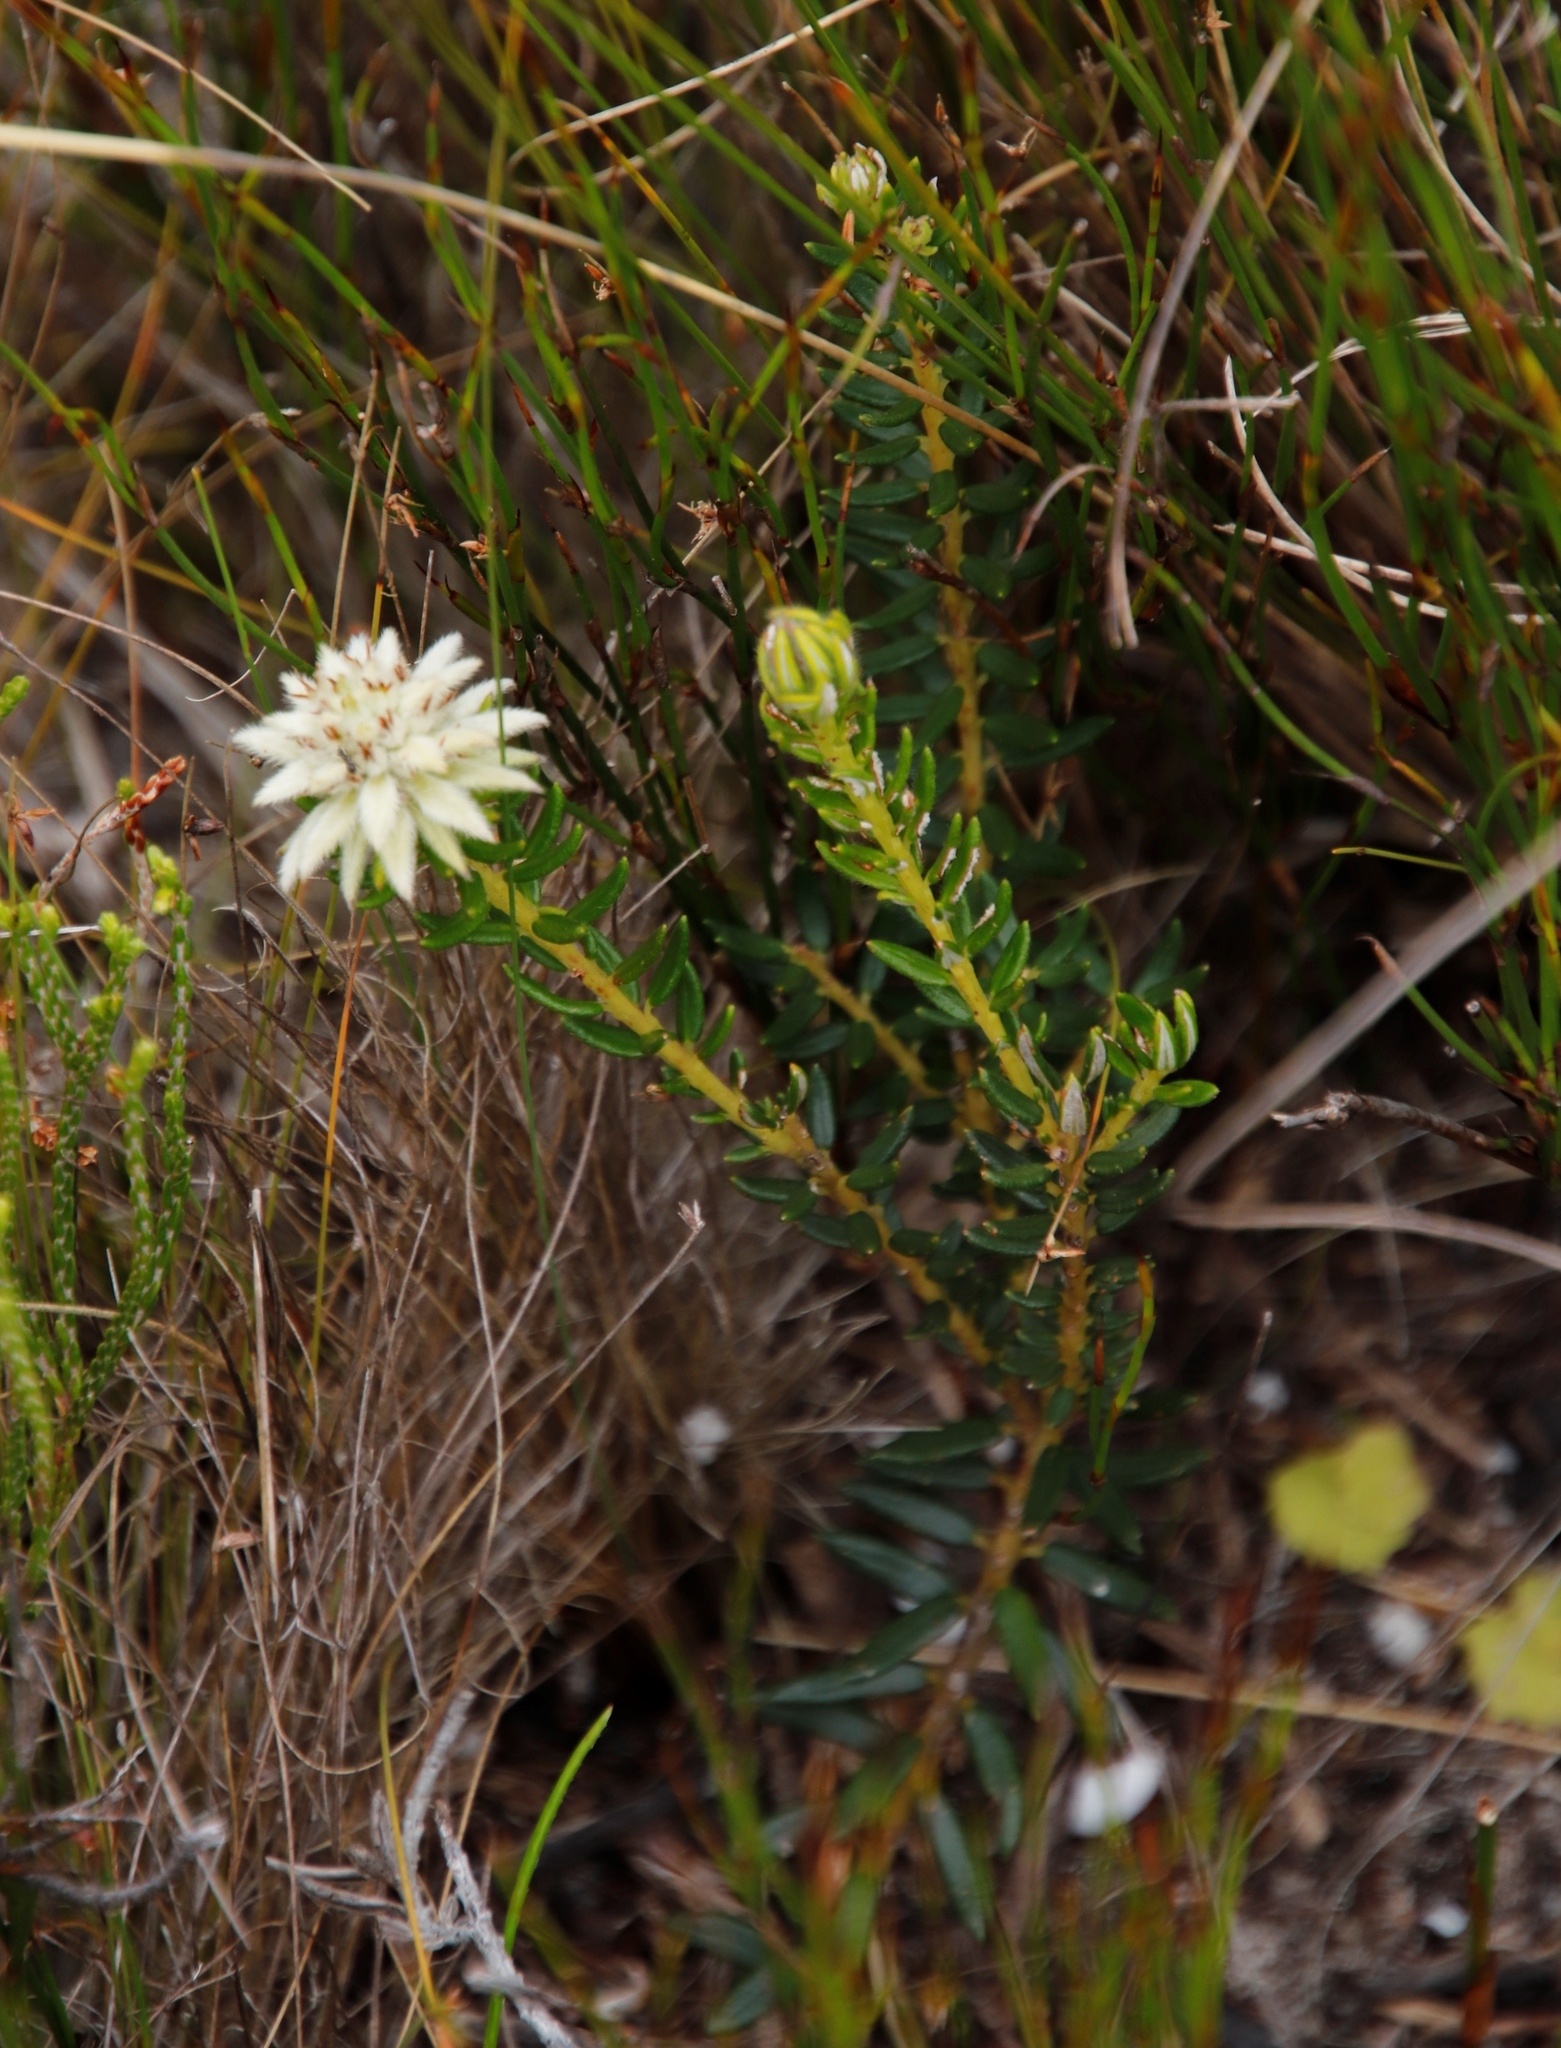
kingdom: Plantae
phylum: Tracheophyta
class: Magnoliopsida
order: Rosales
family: Rhamnaceae
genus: Phylica
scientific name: Phylica dodii
